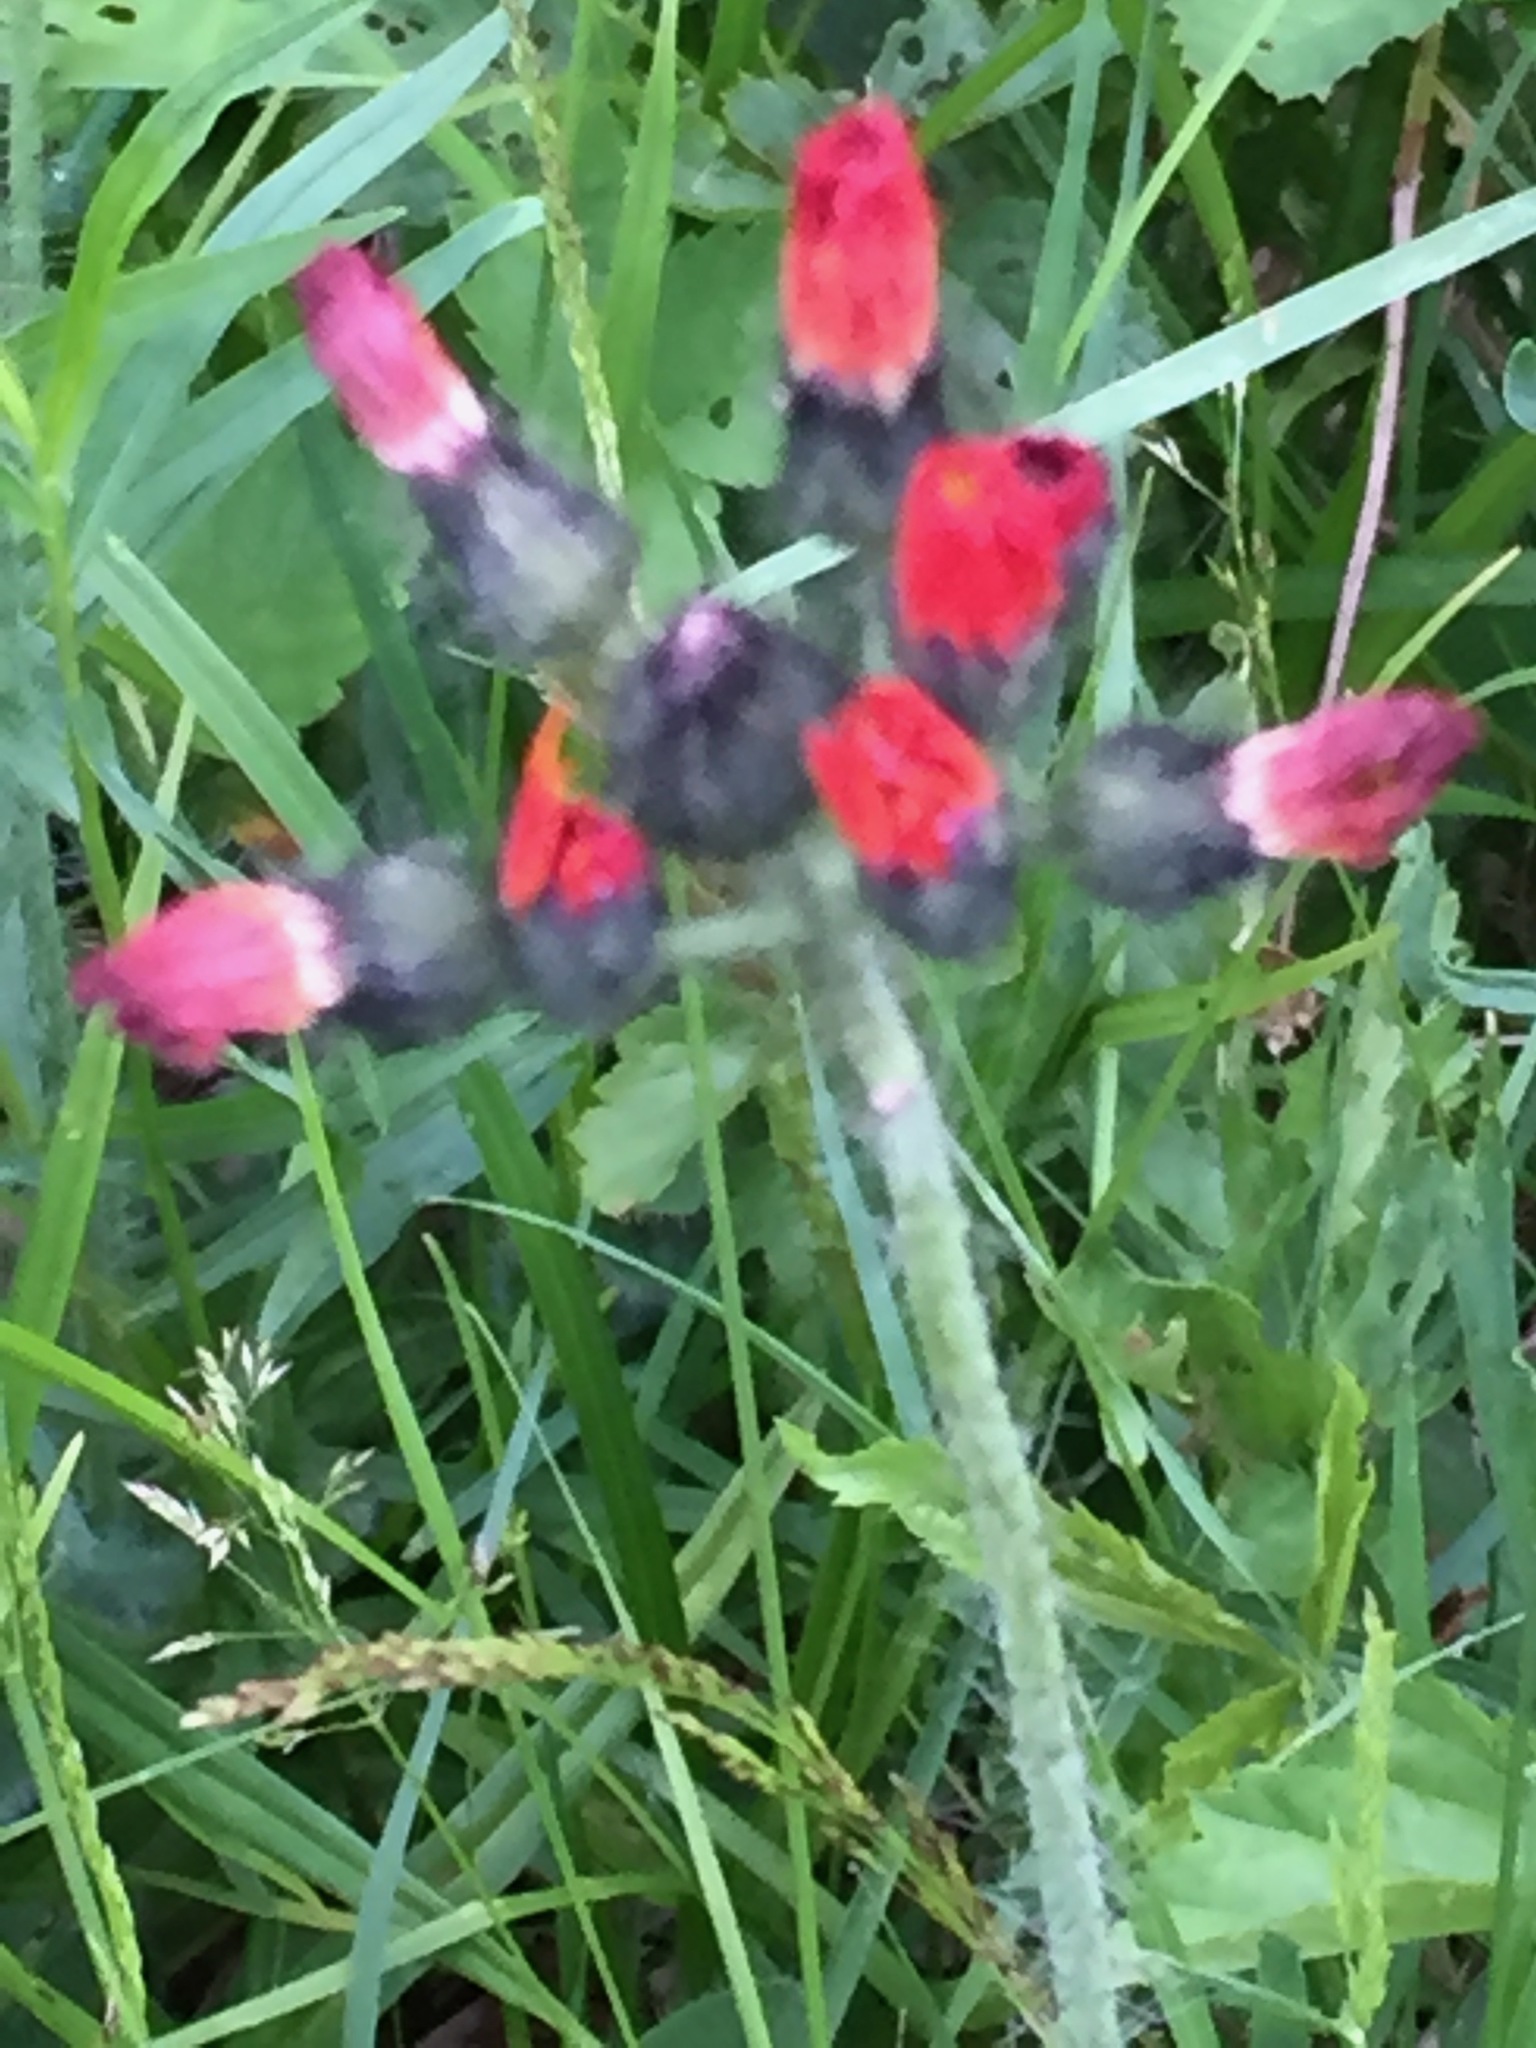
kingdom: Plantae
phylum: Tracheophyta
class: Magnoliopsida
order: Asterales
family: Asteraceae
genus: Pilosella
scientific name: Pilosella aurantiaca
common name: Fox-and-cubs
